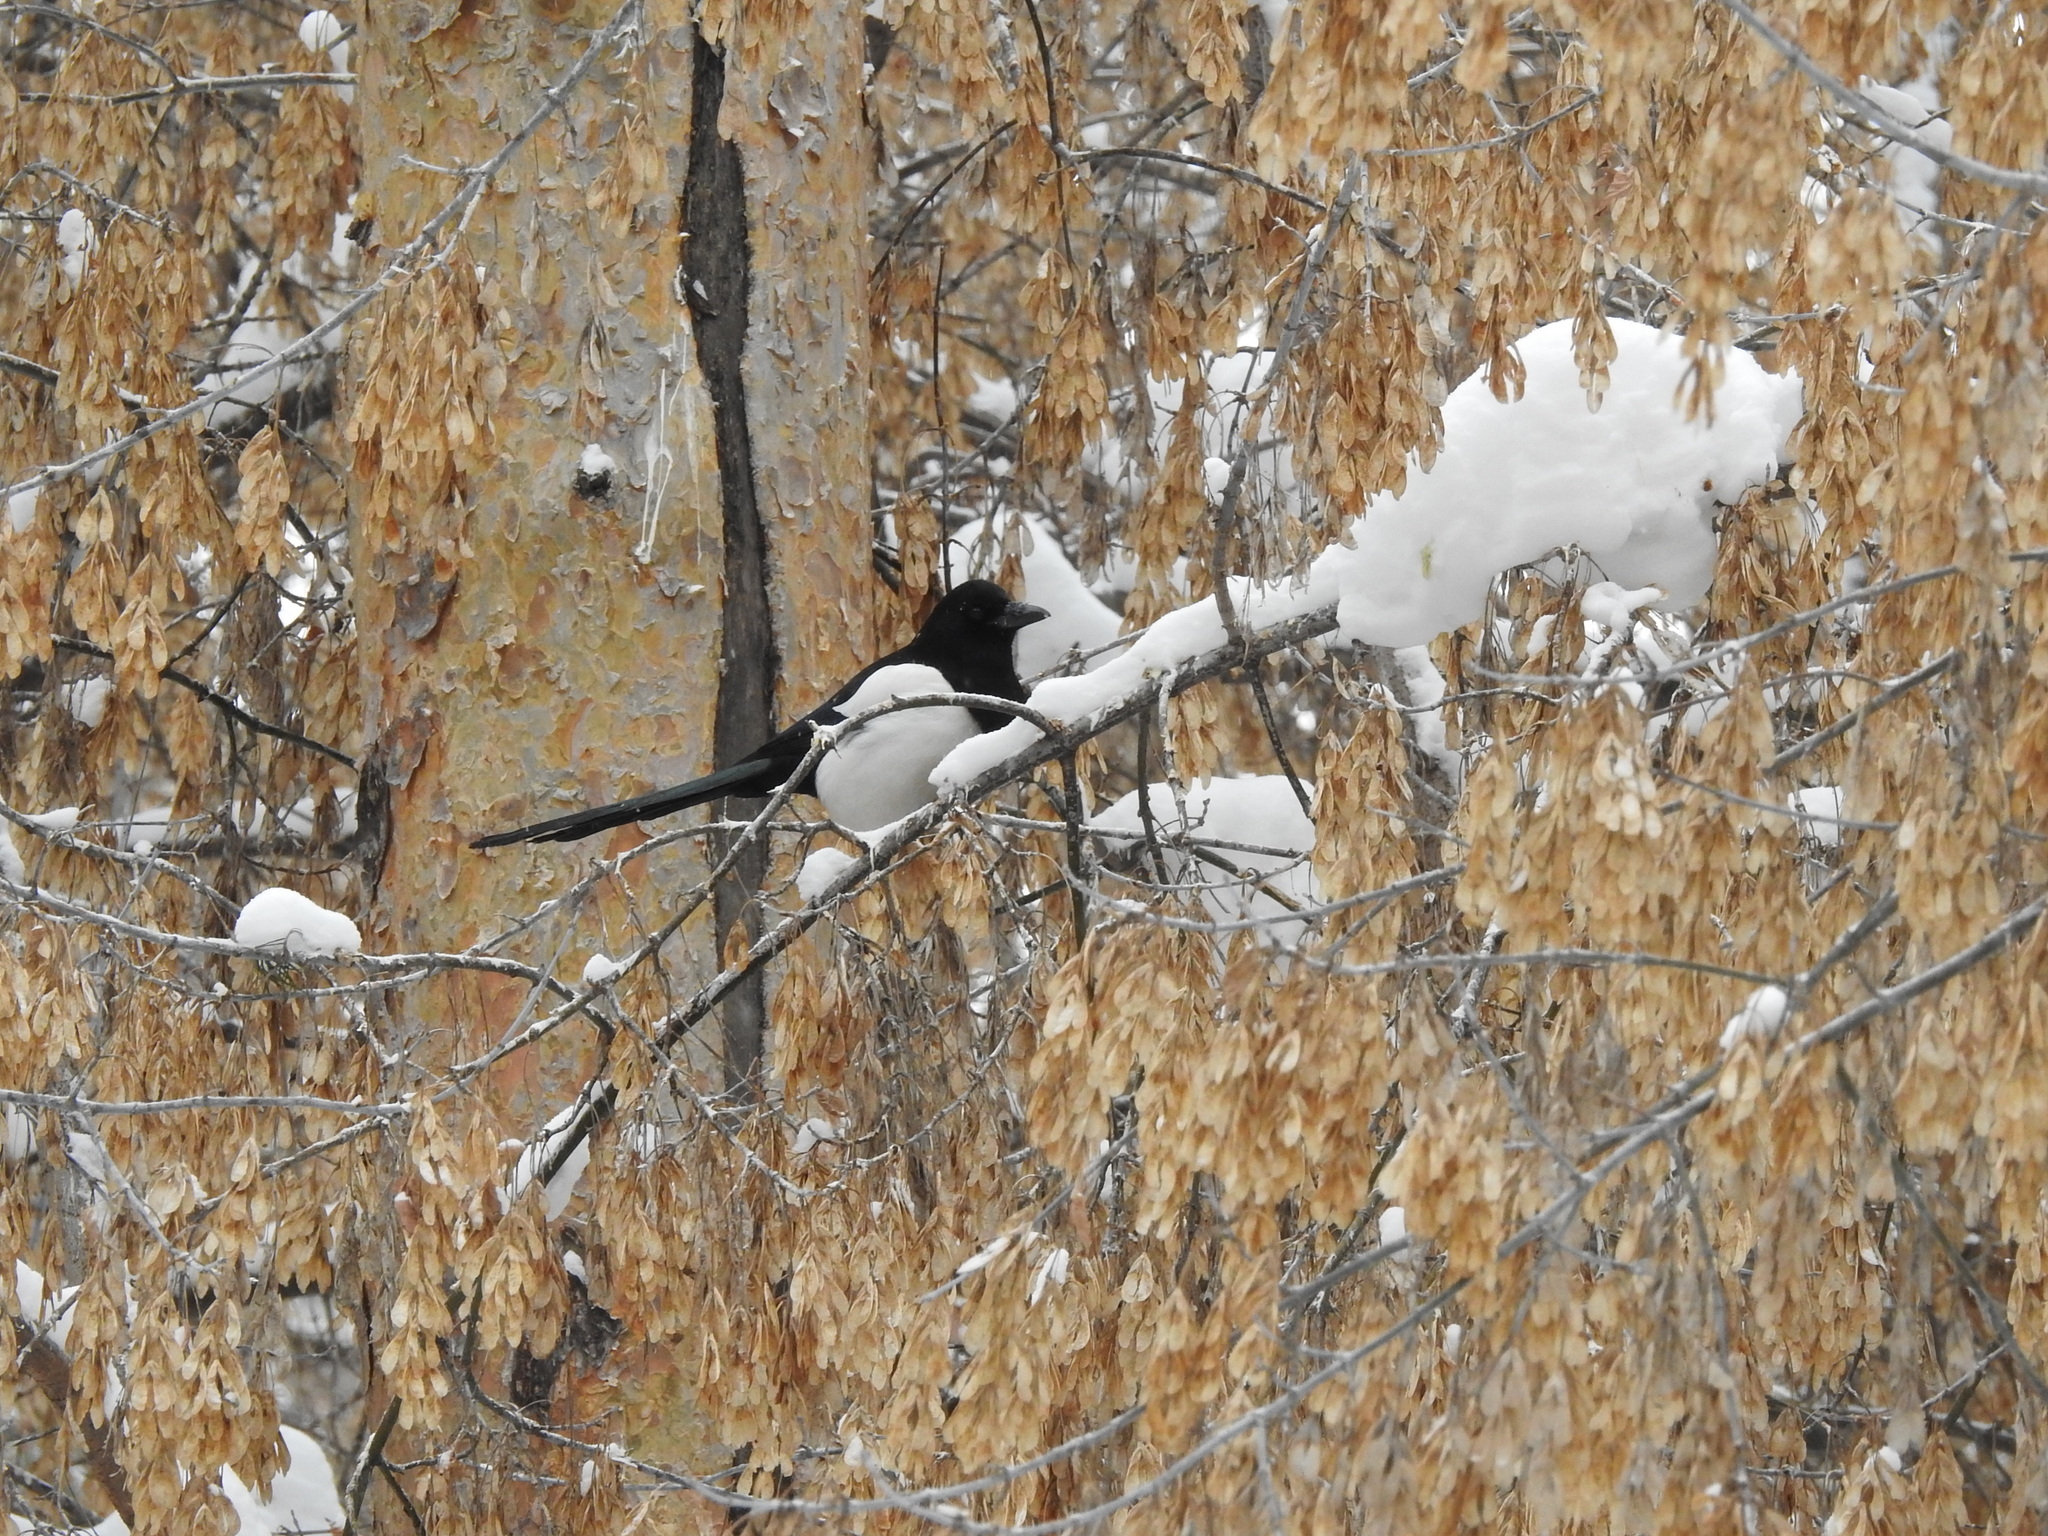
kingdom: Animalia
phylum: Chordata
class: Aves
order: Passeriformes
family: Corvidae
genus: Pica
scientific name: Pica pica
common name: Eurasian magpie
